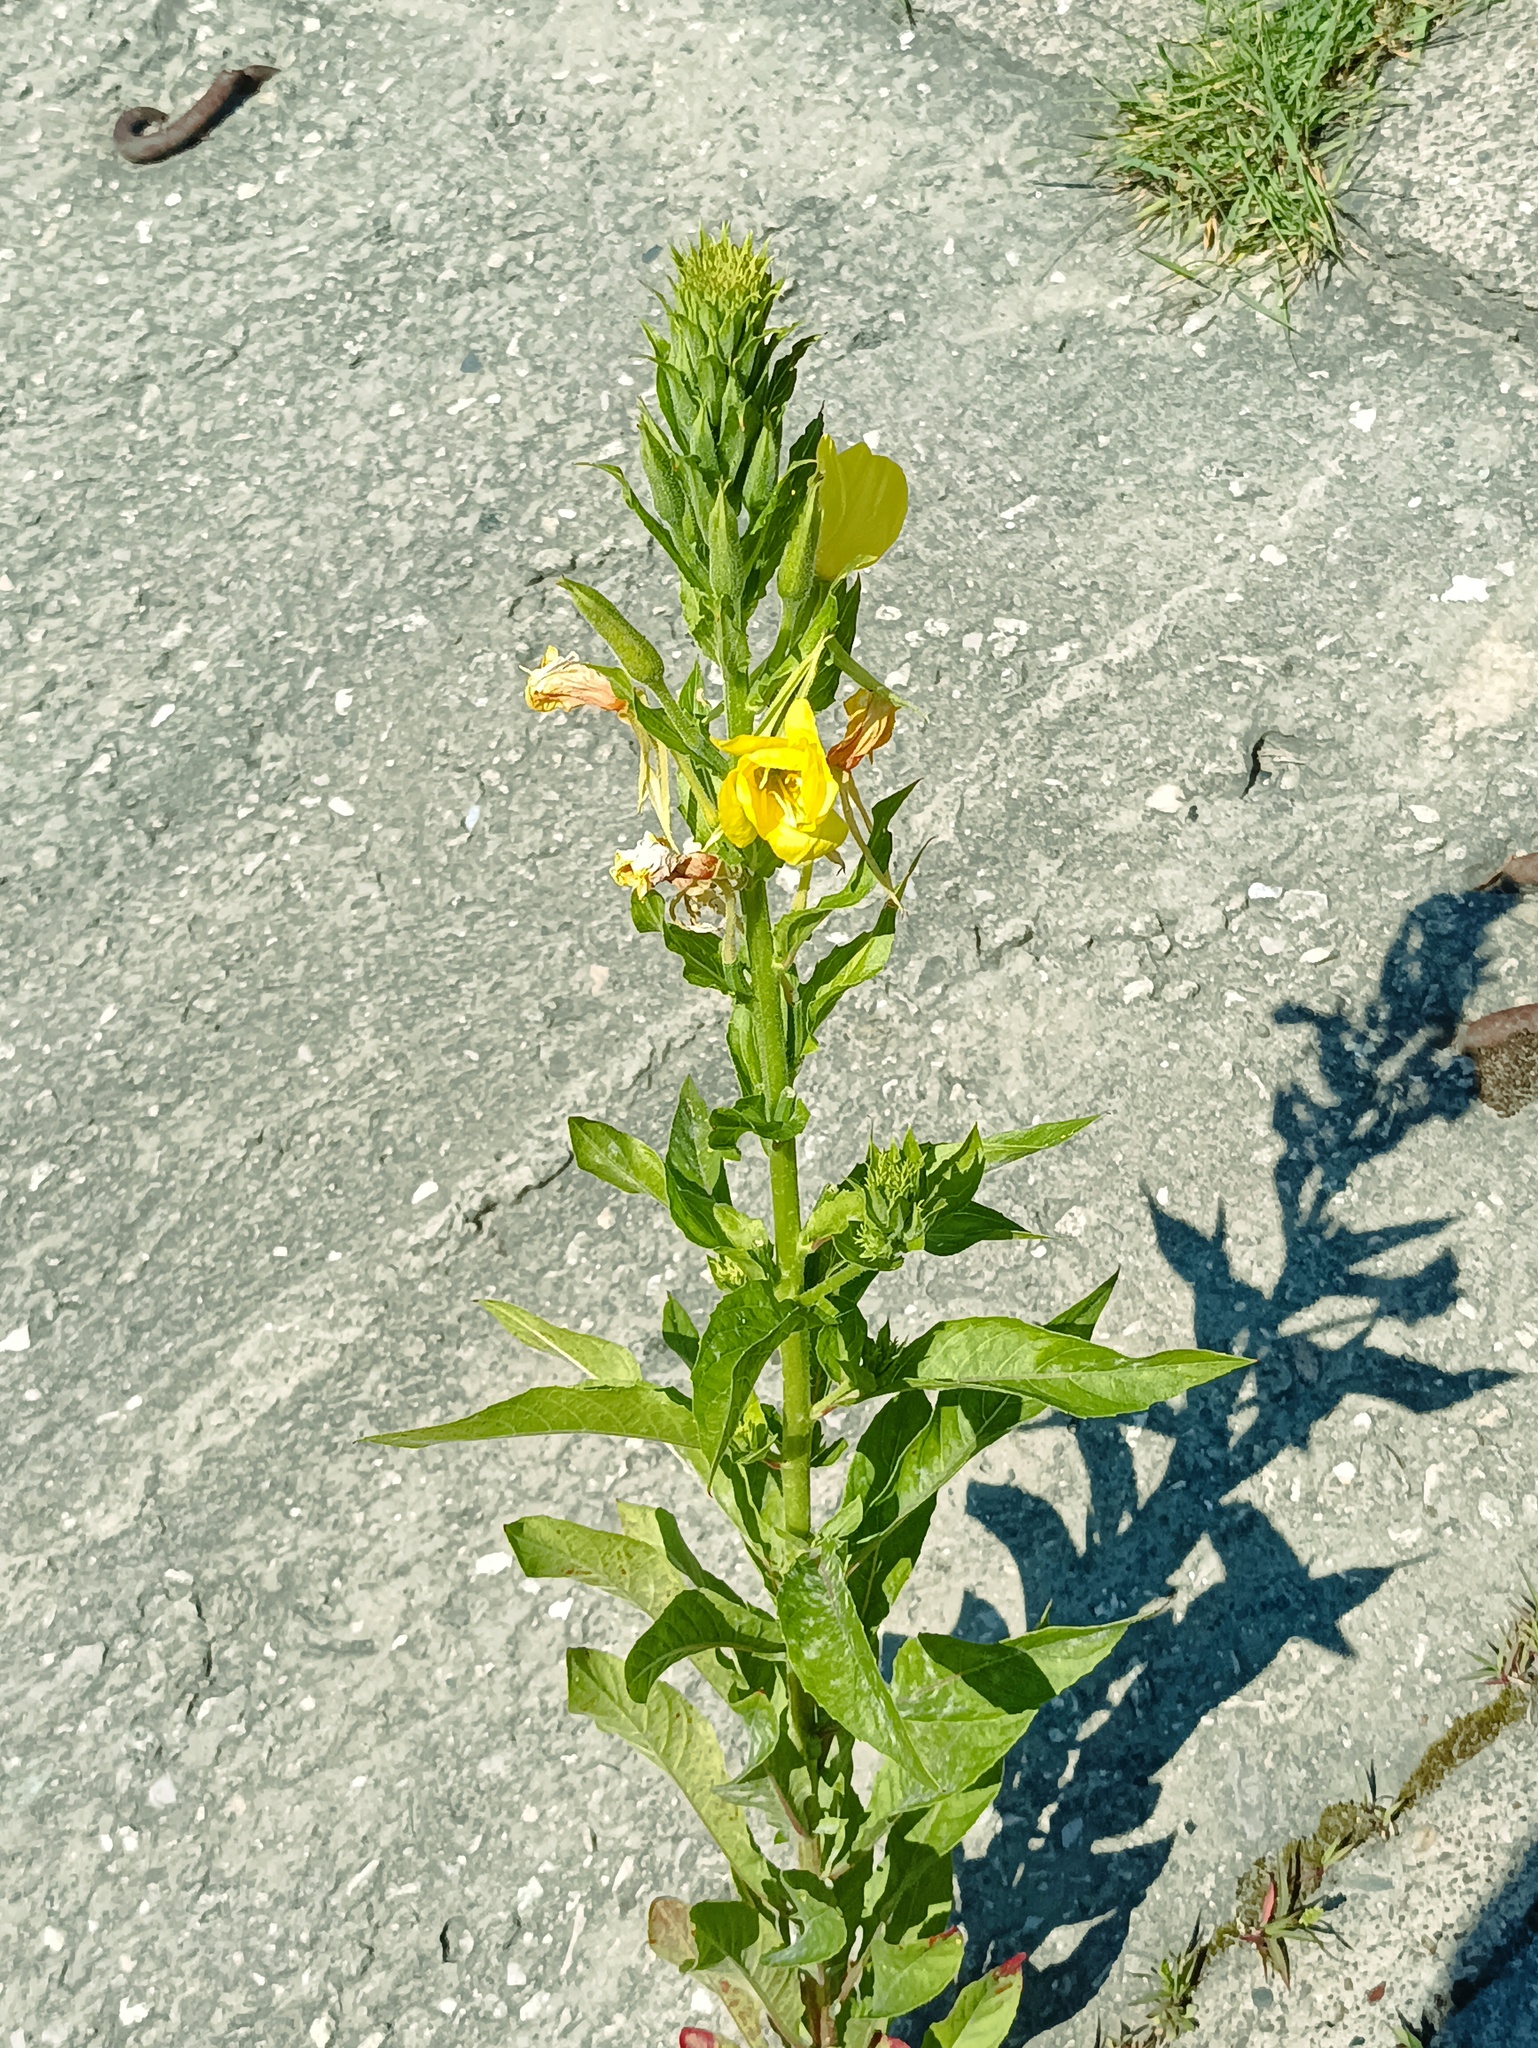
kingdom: Plantae
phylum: Tracheophyta
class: Magnoliopsida
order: Myrtales
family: Onagraceae
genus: Oenothera
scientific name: Oenothera biennis
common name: Common evening-primrose
